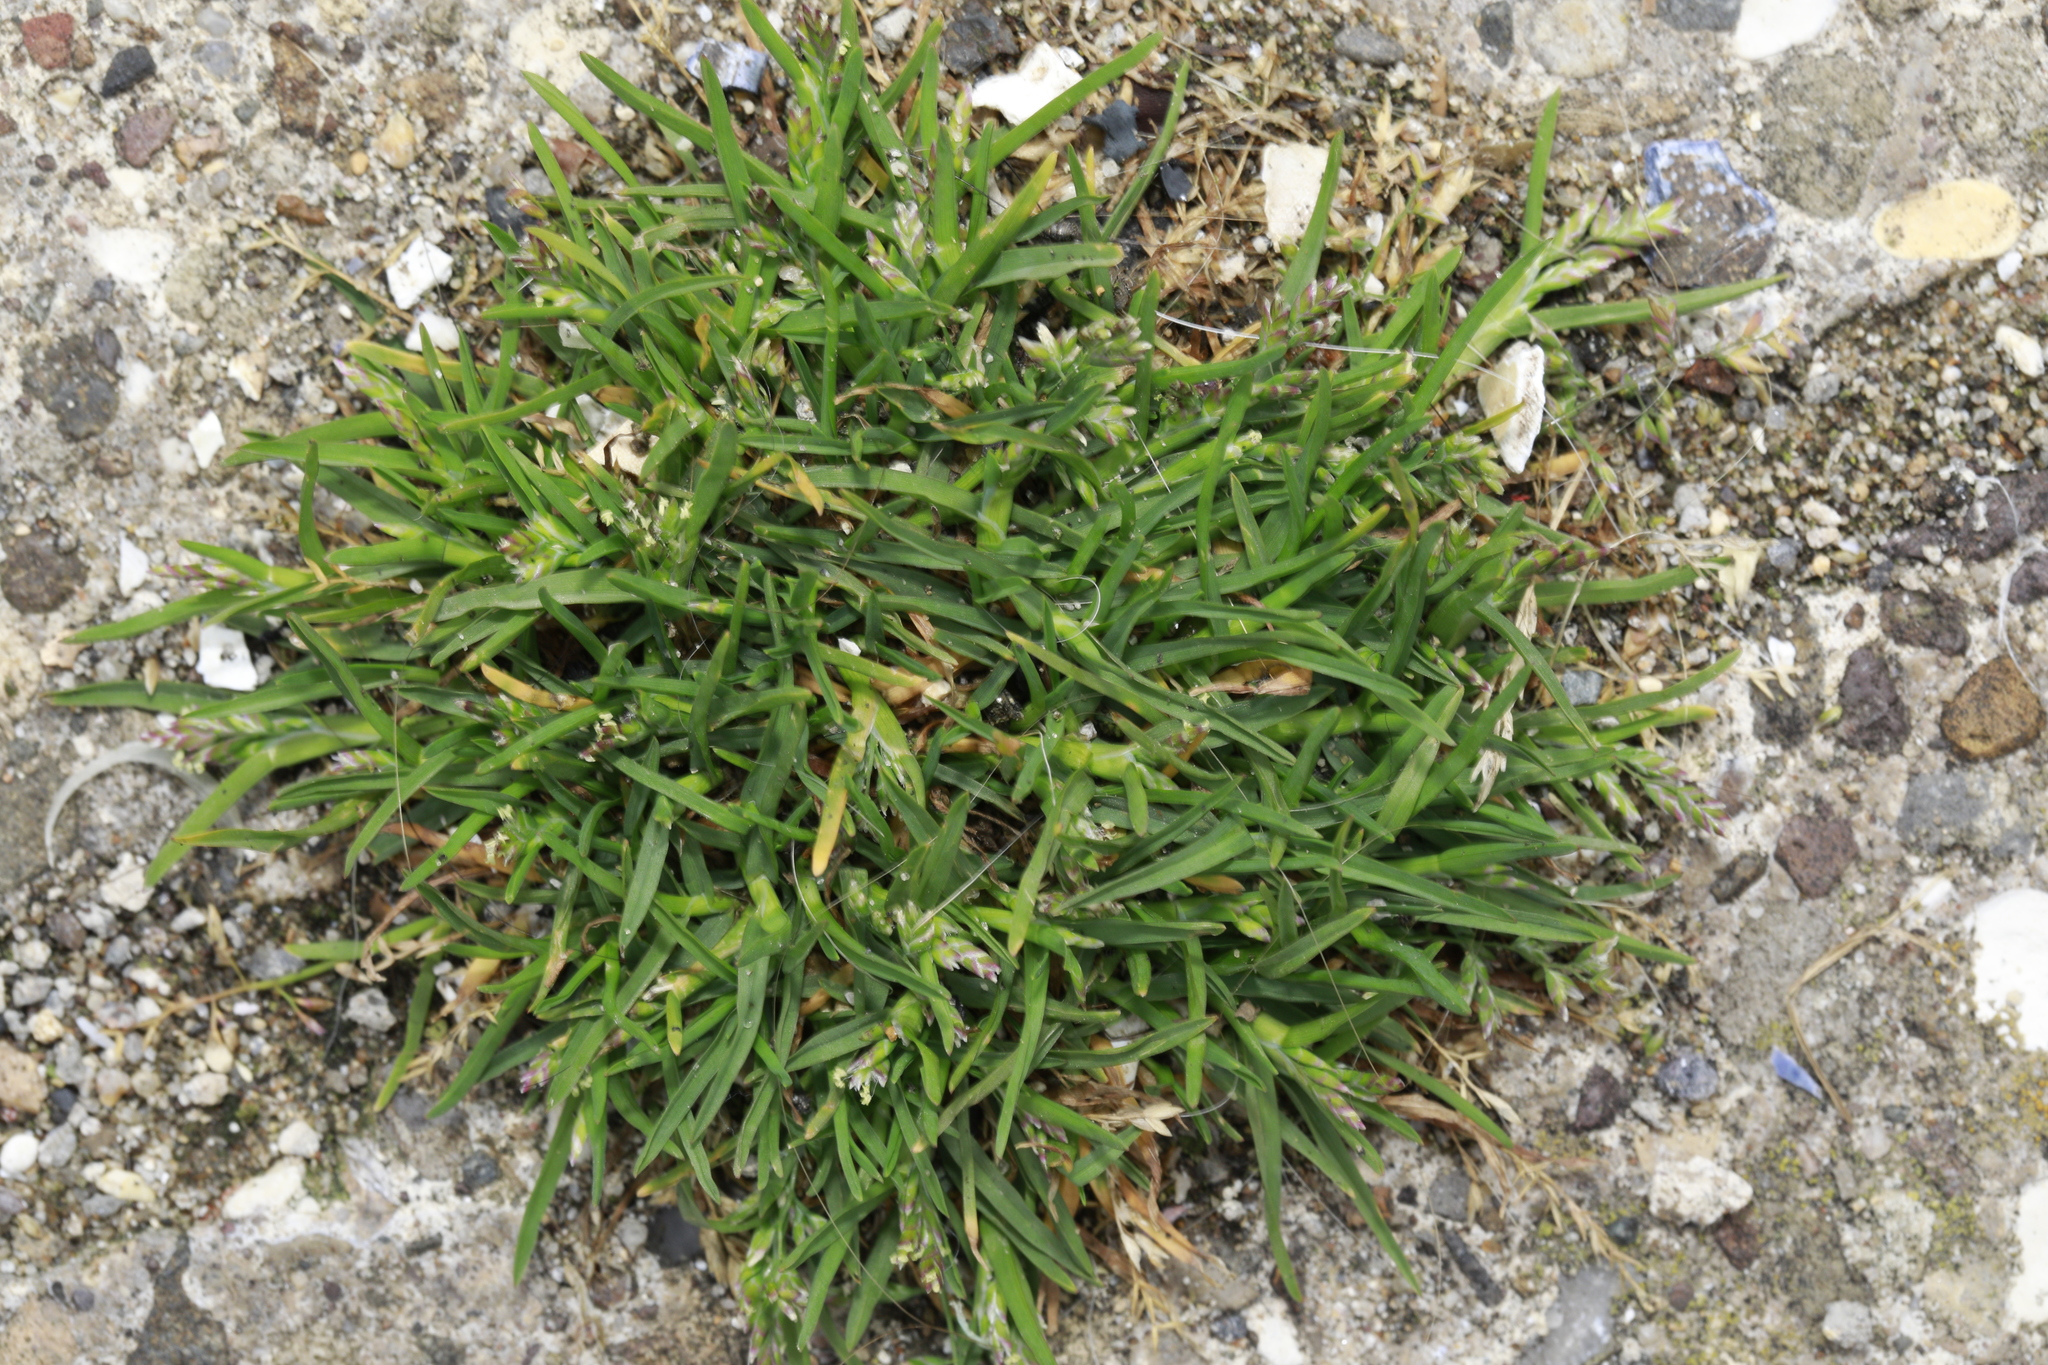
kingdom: Plantae
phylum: Tracheophyta
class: Liliopsida
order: Poales
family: Poaceae
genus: Poa
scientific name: Poa annua
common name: Annual bluegrass
